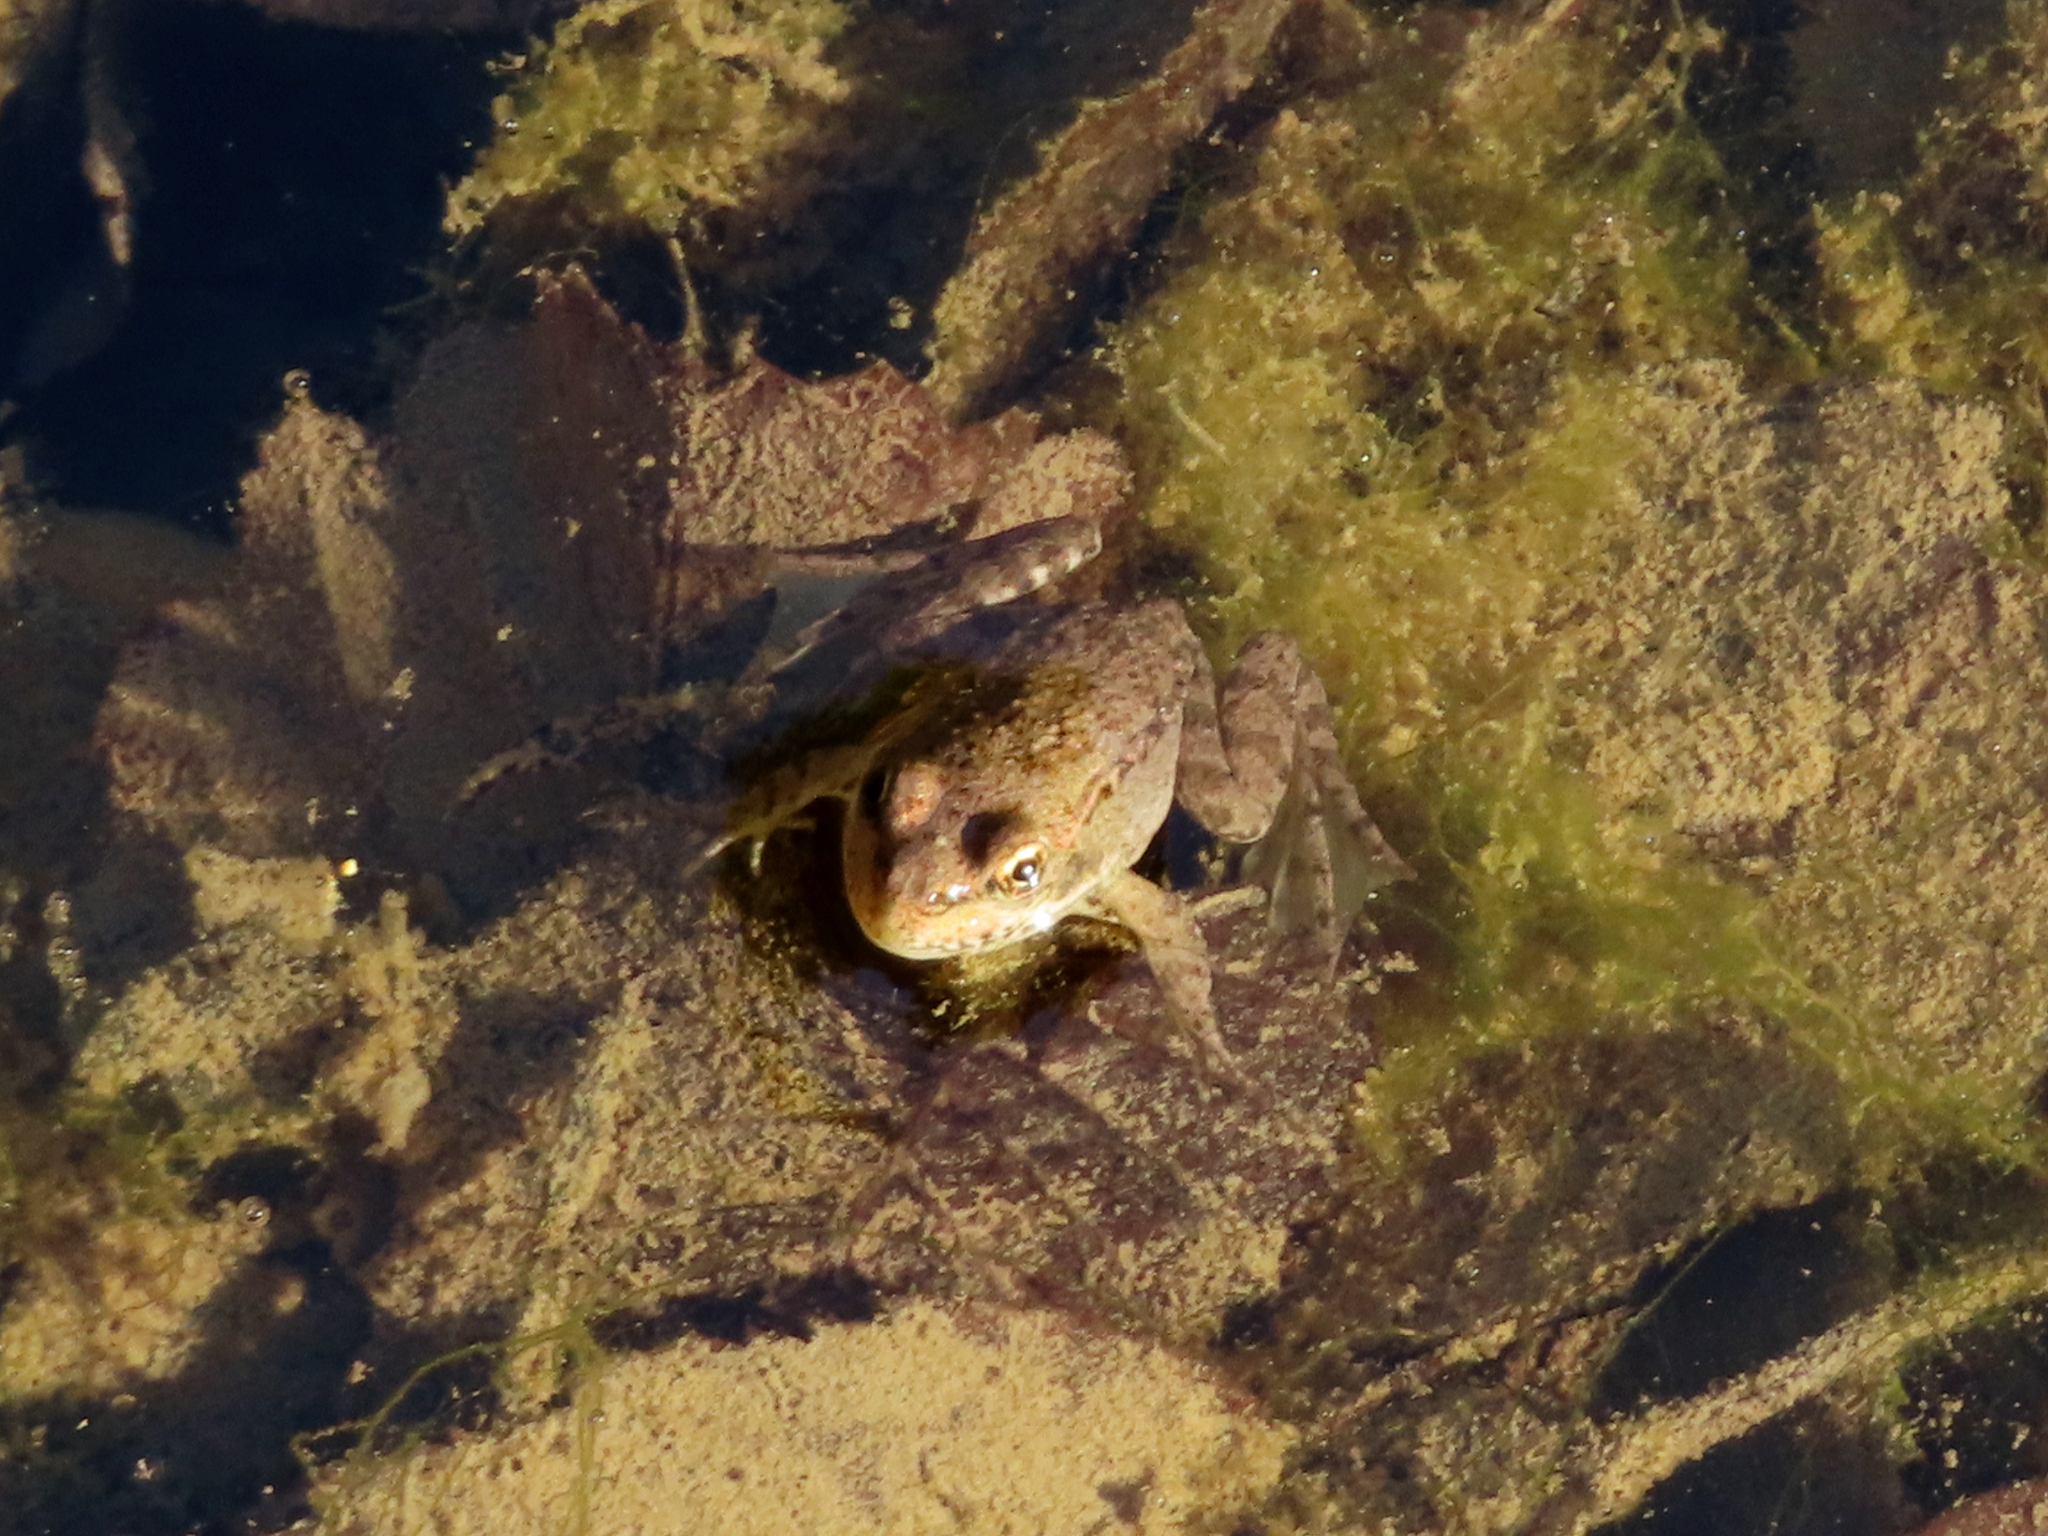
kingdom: Animalia
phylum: Chordata
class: Amphibia
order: Anura
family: Ranidae
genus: Pelophylax
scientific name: Pelophylax ridibundus
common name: Marsh frog
